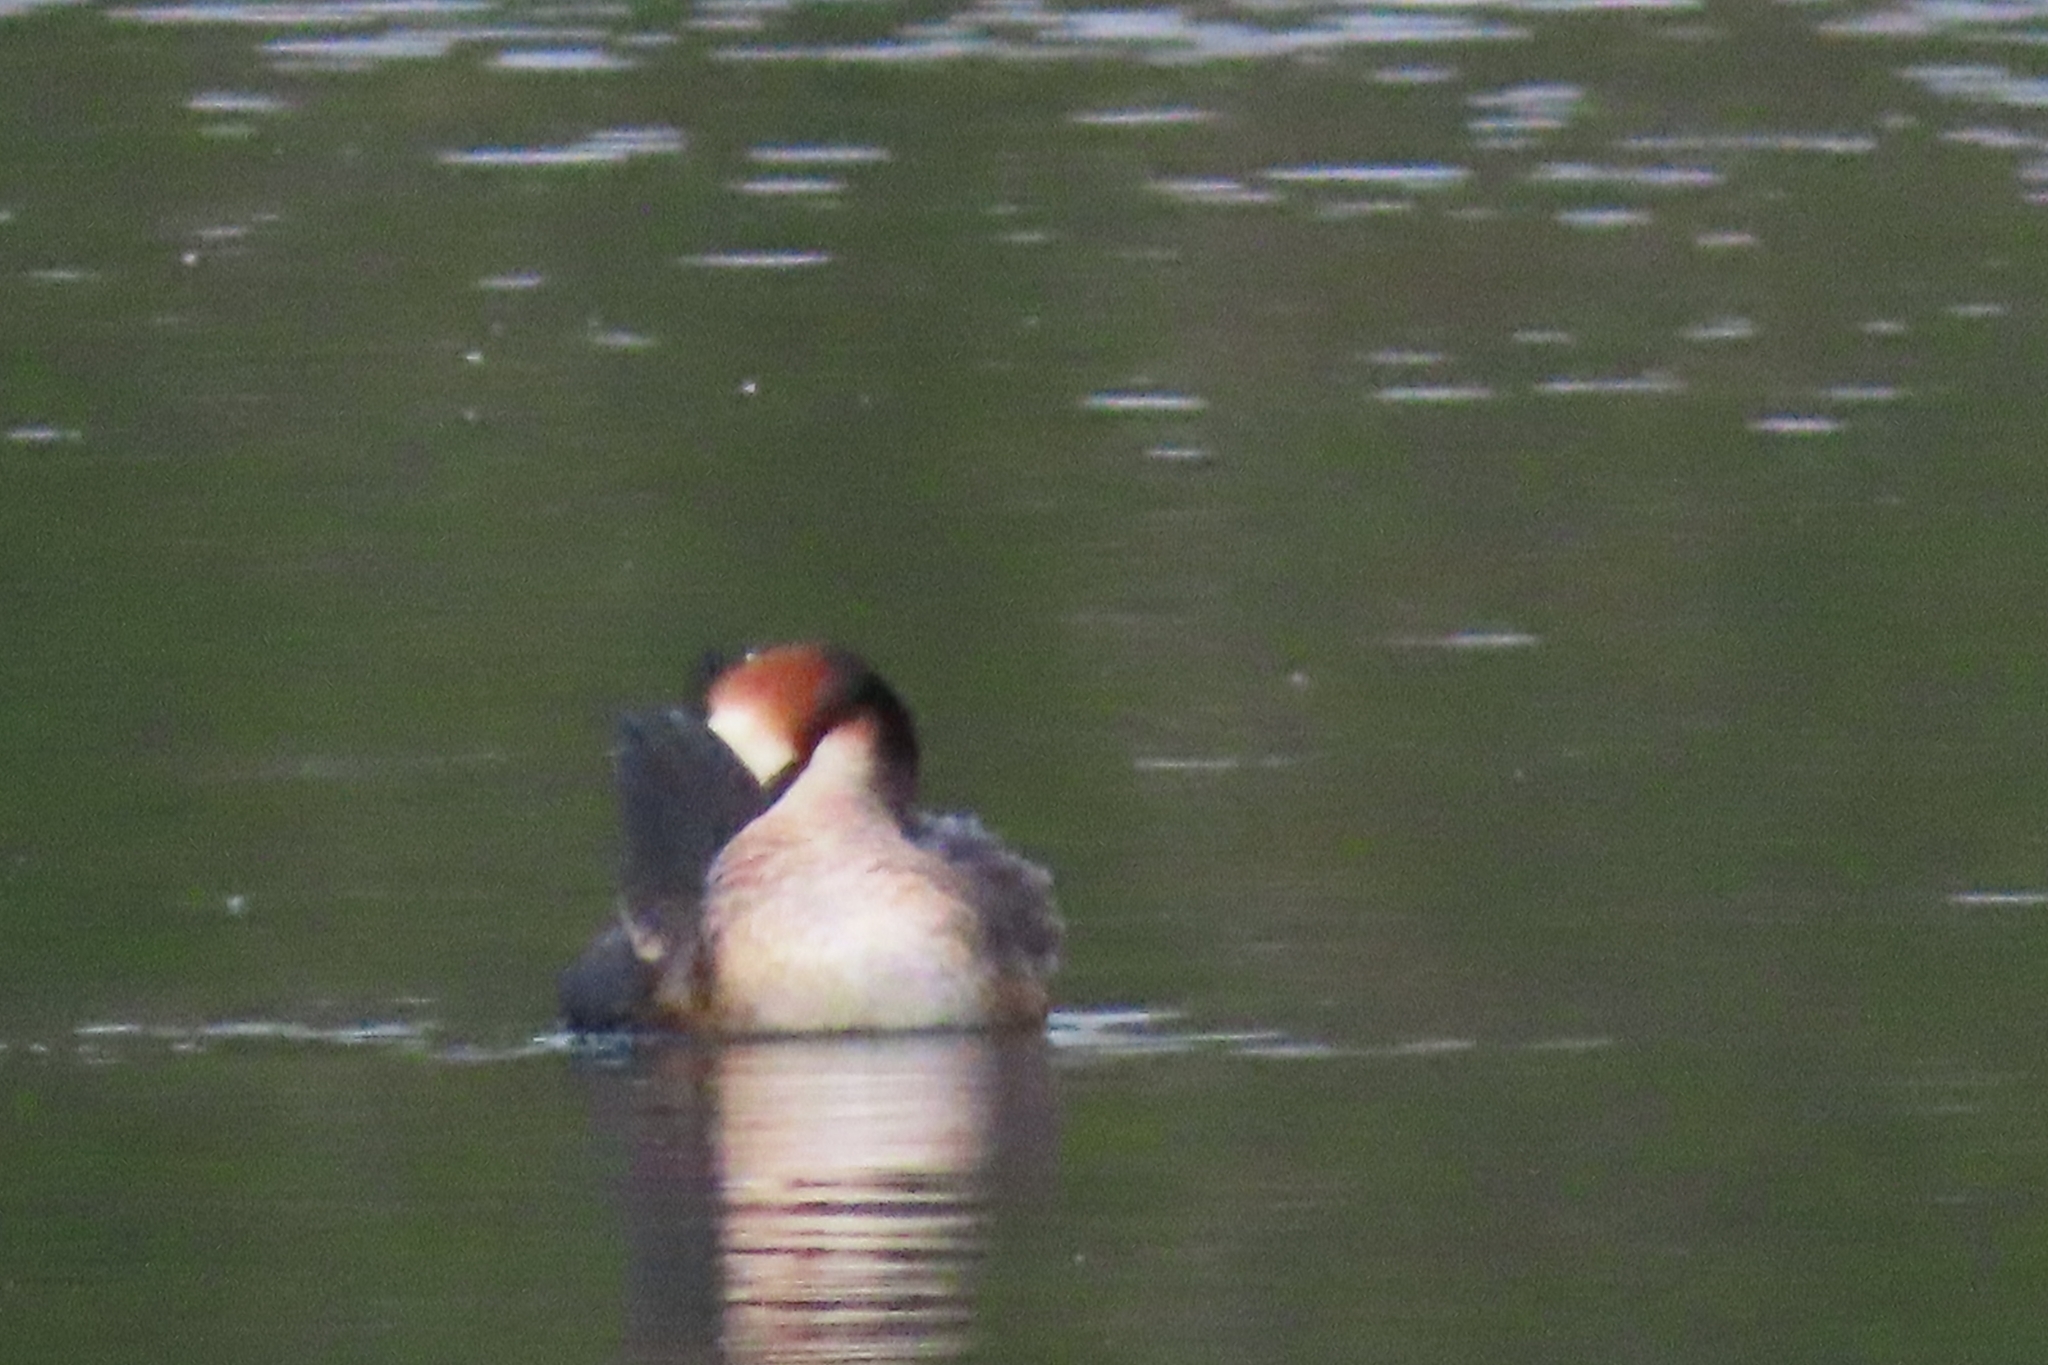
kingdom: Animalia
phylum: Chordata
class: Aves
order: Podicipediformes
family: Podicipedidae
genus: Podiceps
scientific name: Podiceps cristatus
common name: Great crested grebe
